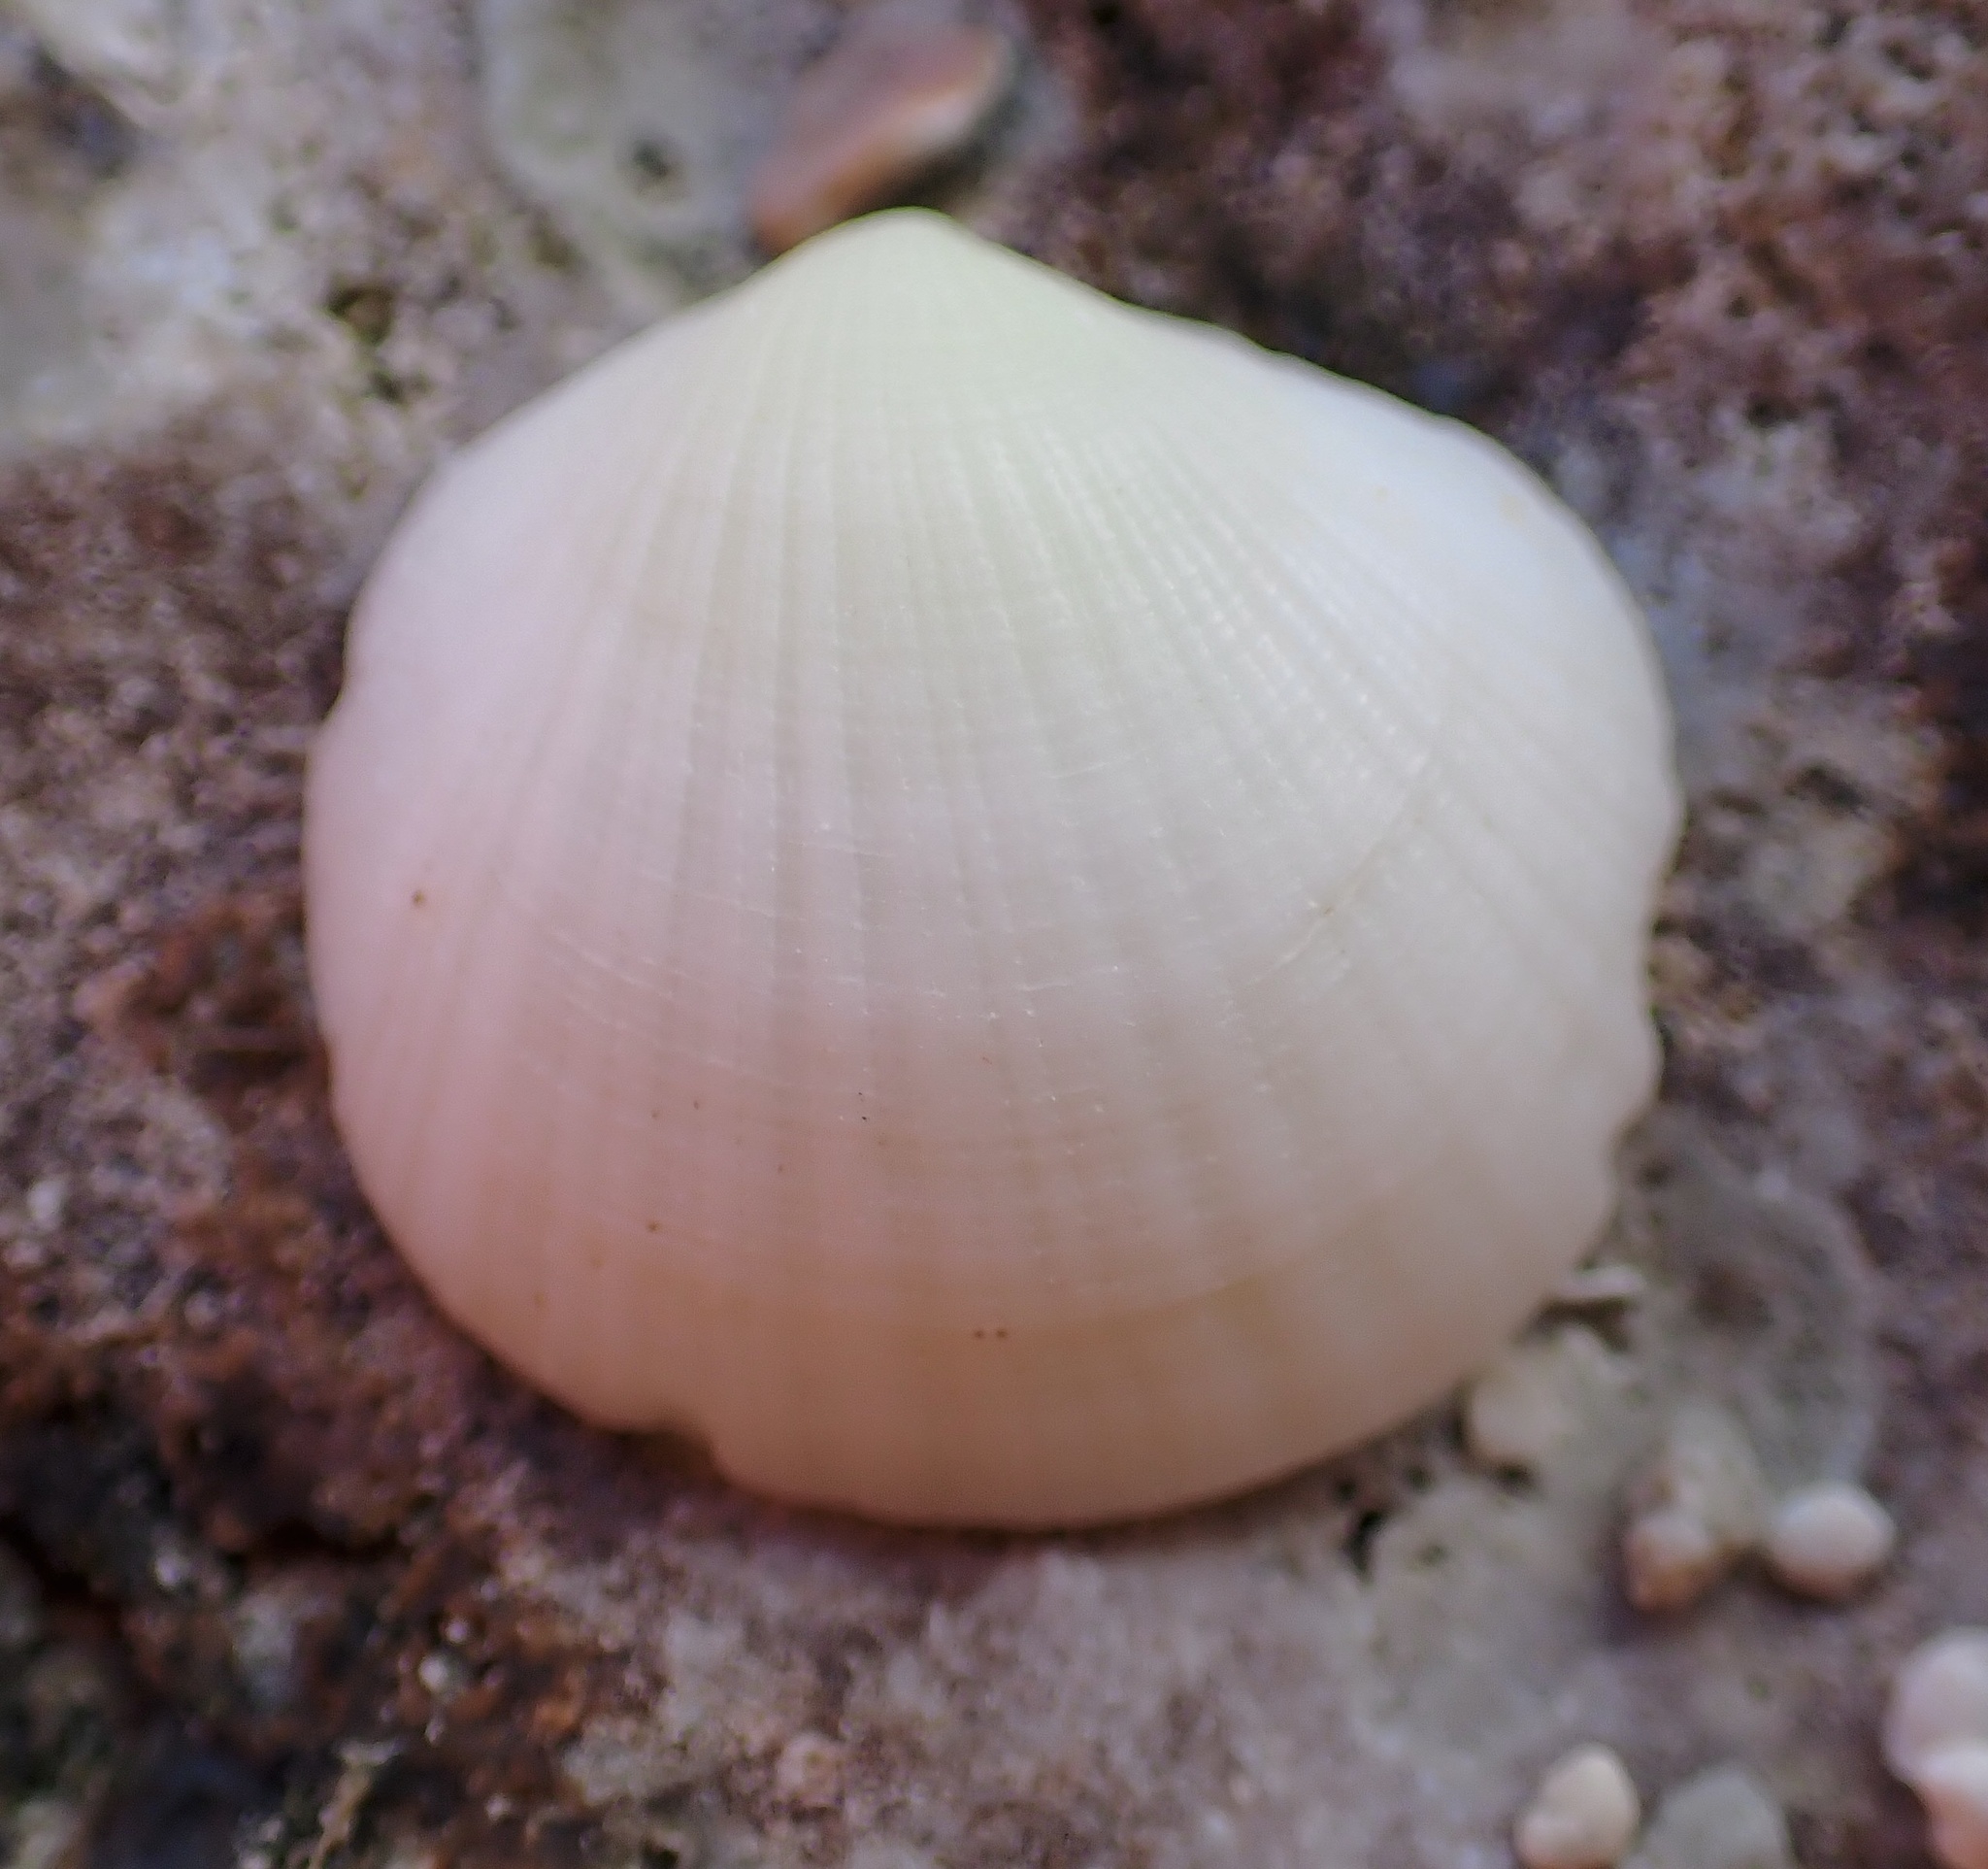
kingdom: Animalia
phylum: Mollusca
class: Bivalvia
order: Lucinida
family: Lucinidae
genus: Clathrolucina
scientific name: Clathrolucina costata
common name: Costate lucine
